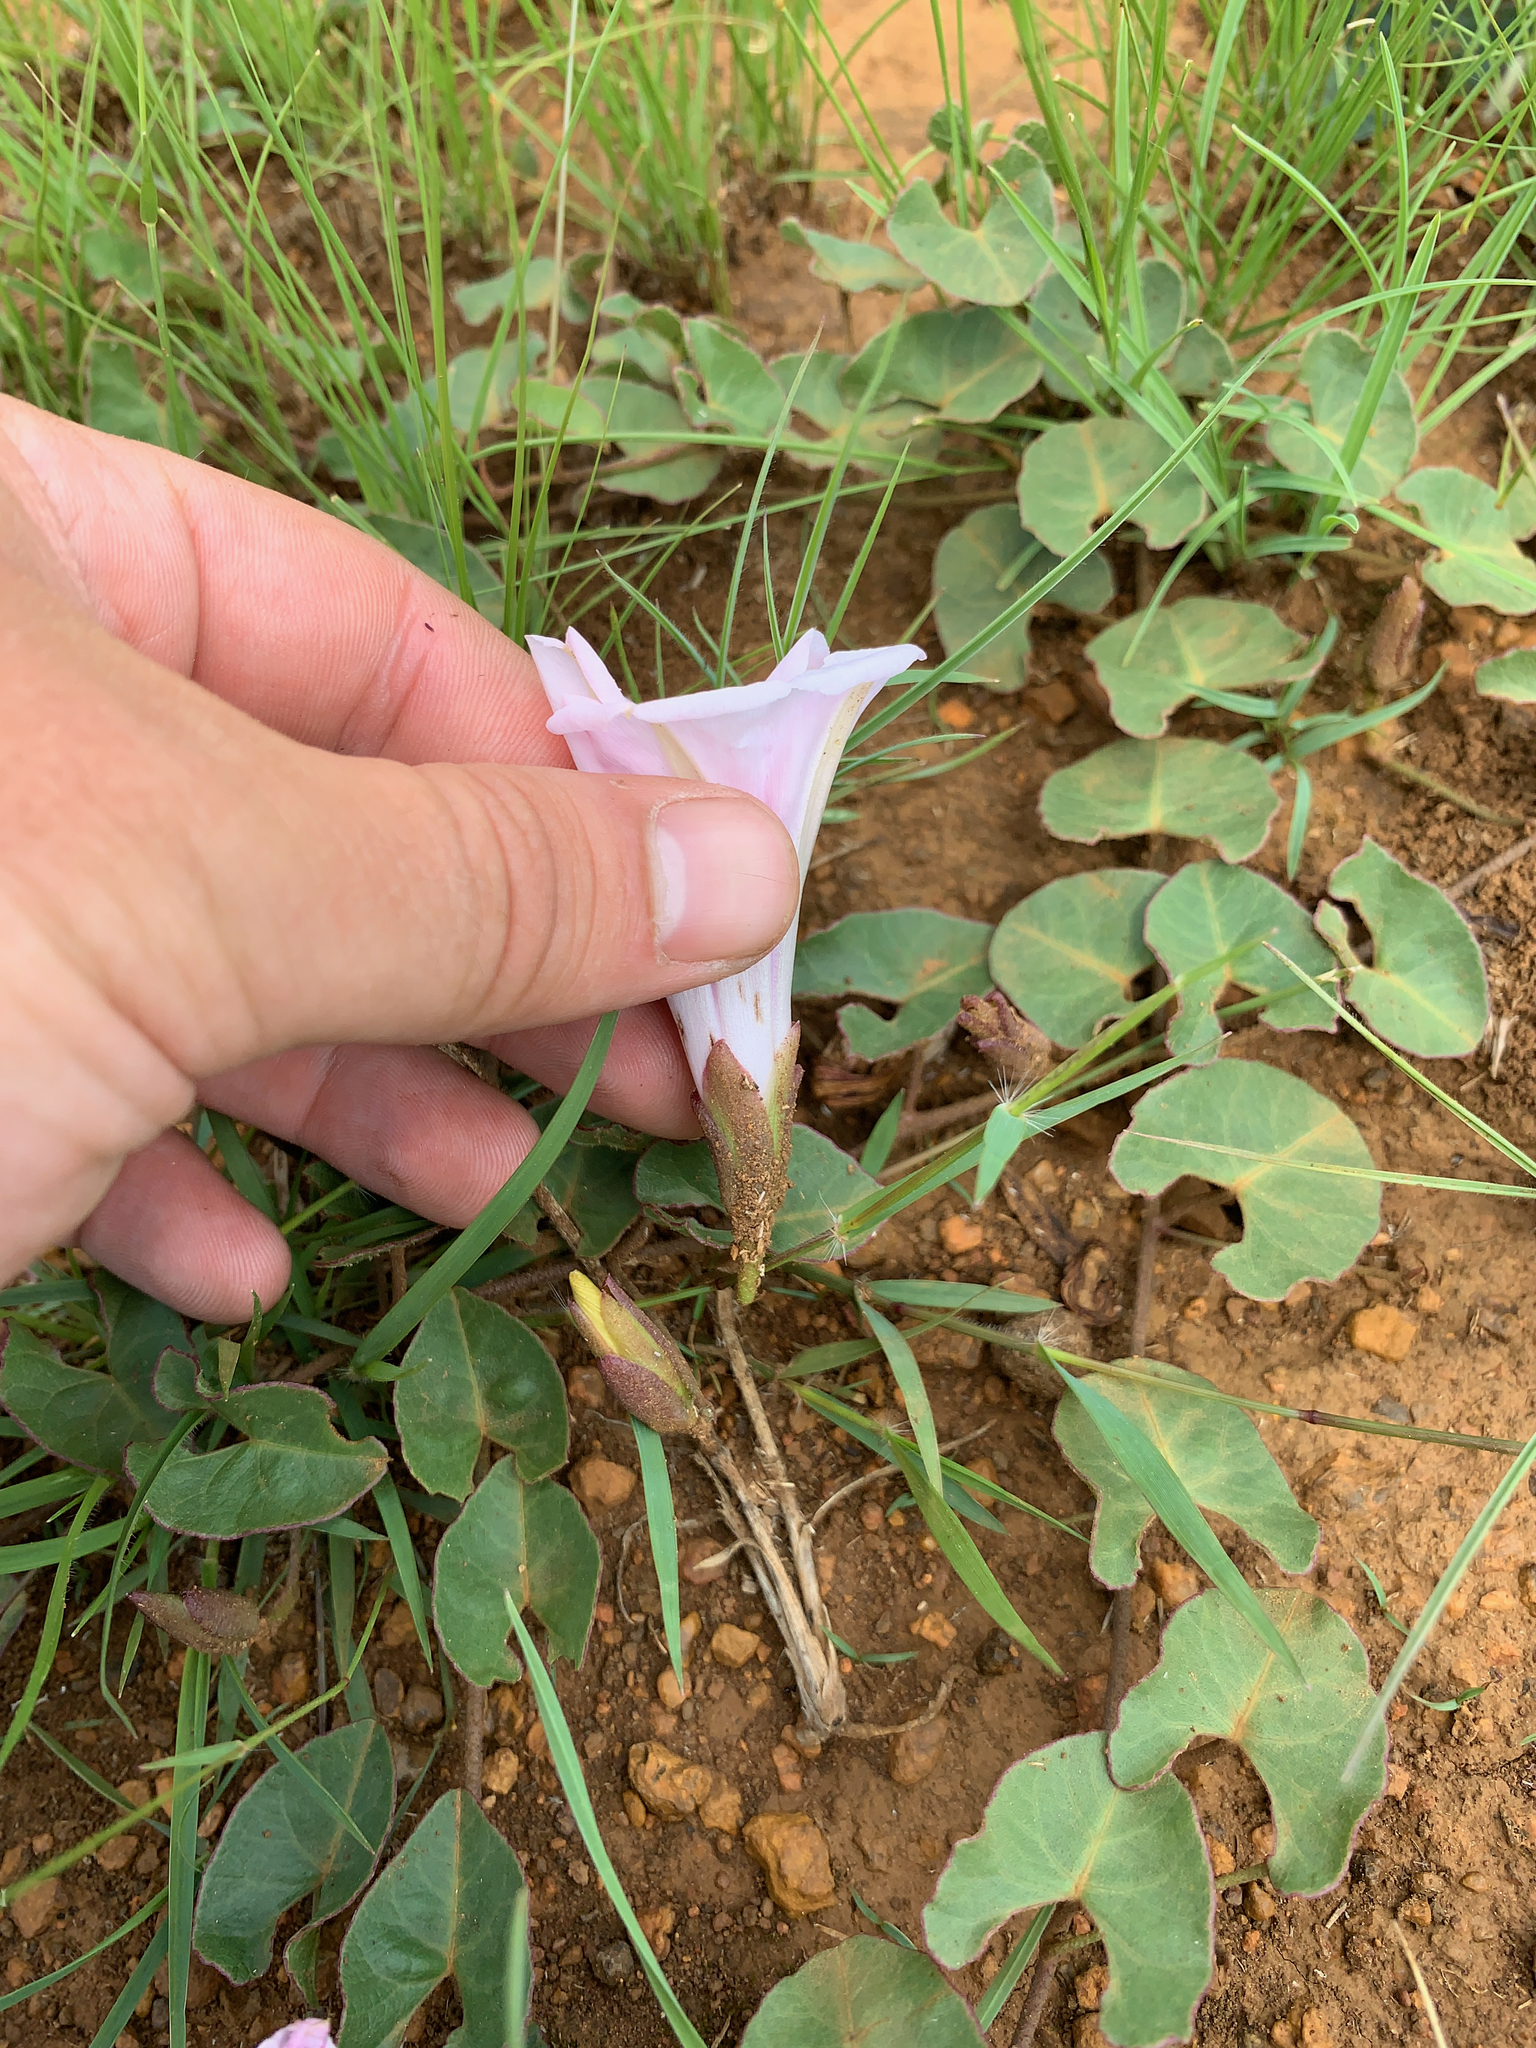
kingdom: Plantae
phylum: Tracheophyta
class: Magnoliopsida
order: Solanales
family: Convolvulaceae
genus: Ipomoea
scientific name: Ipomoea bathycolpos
